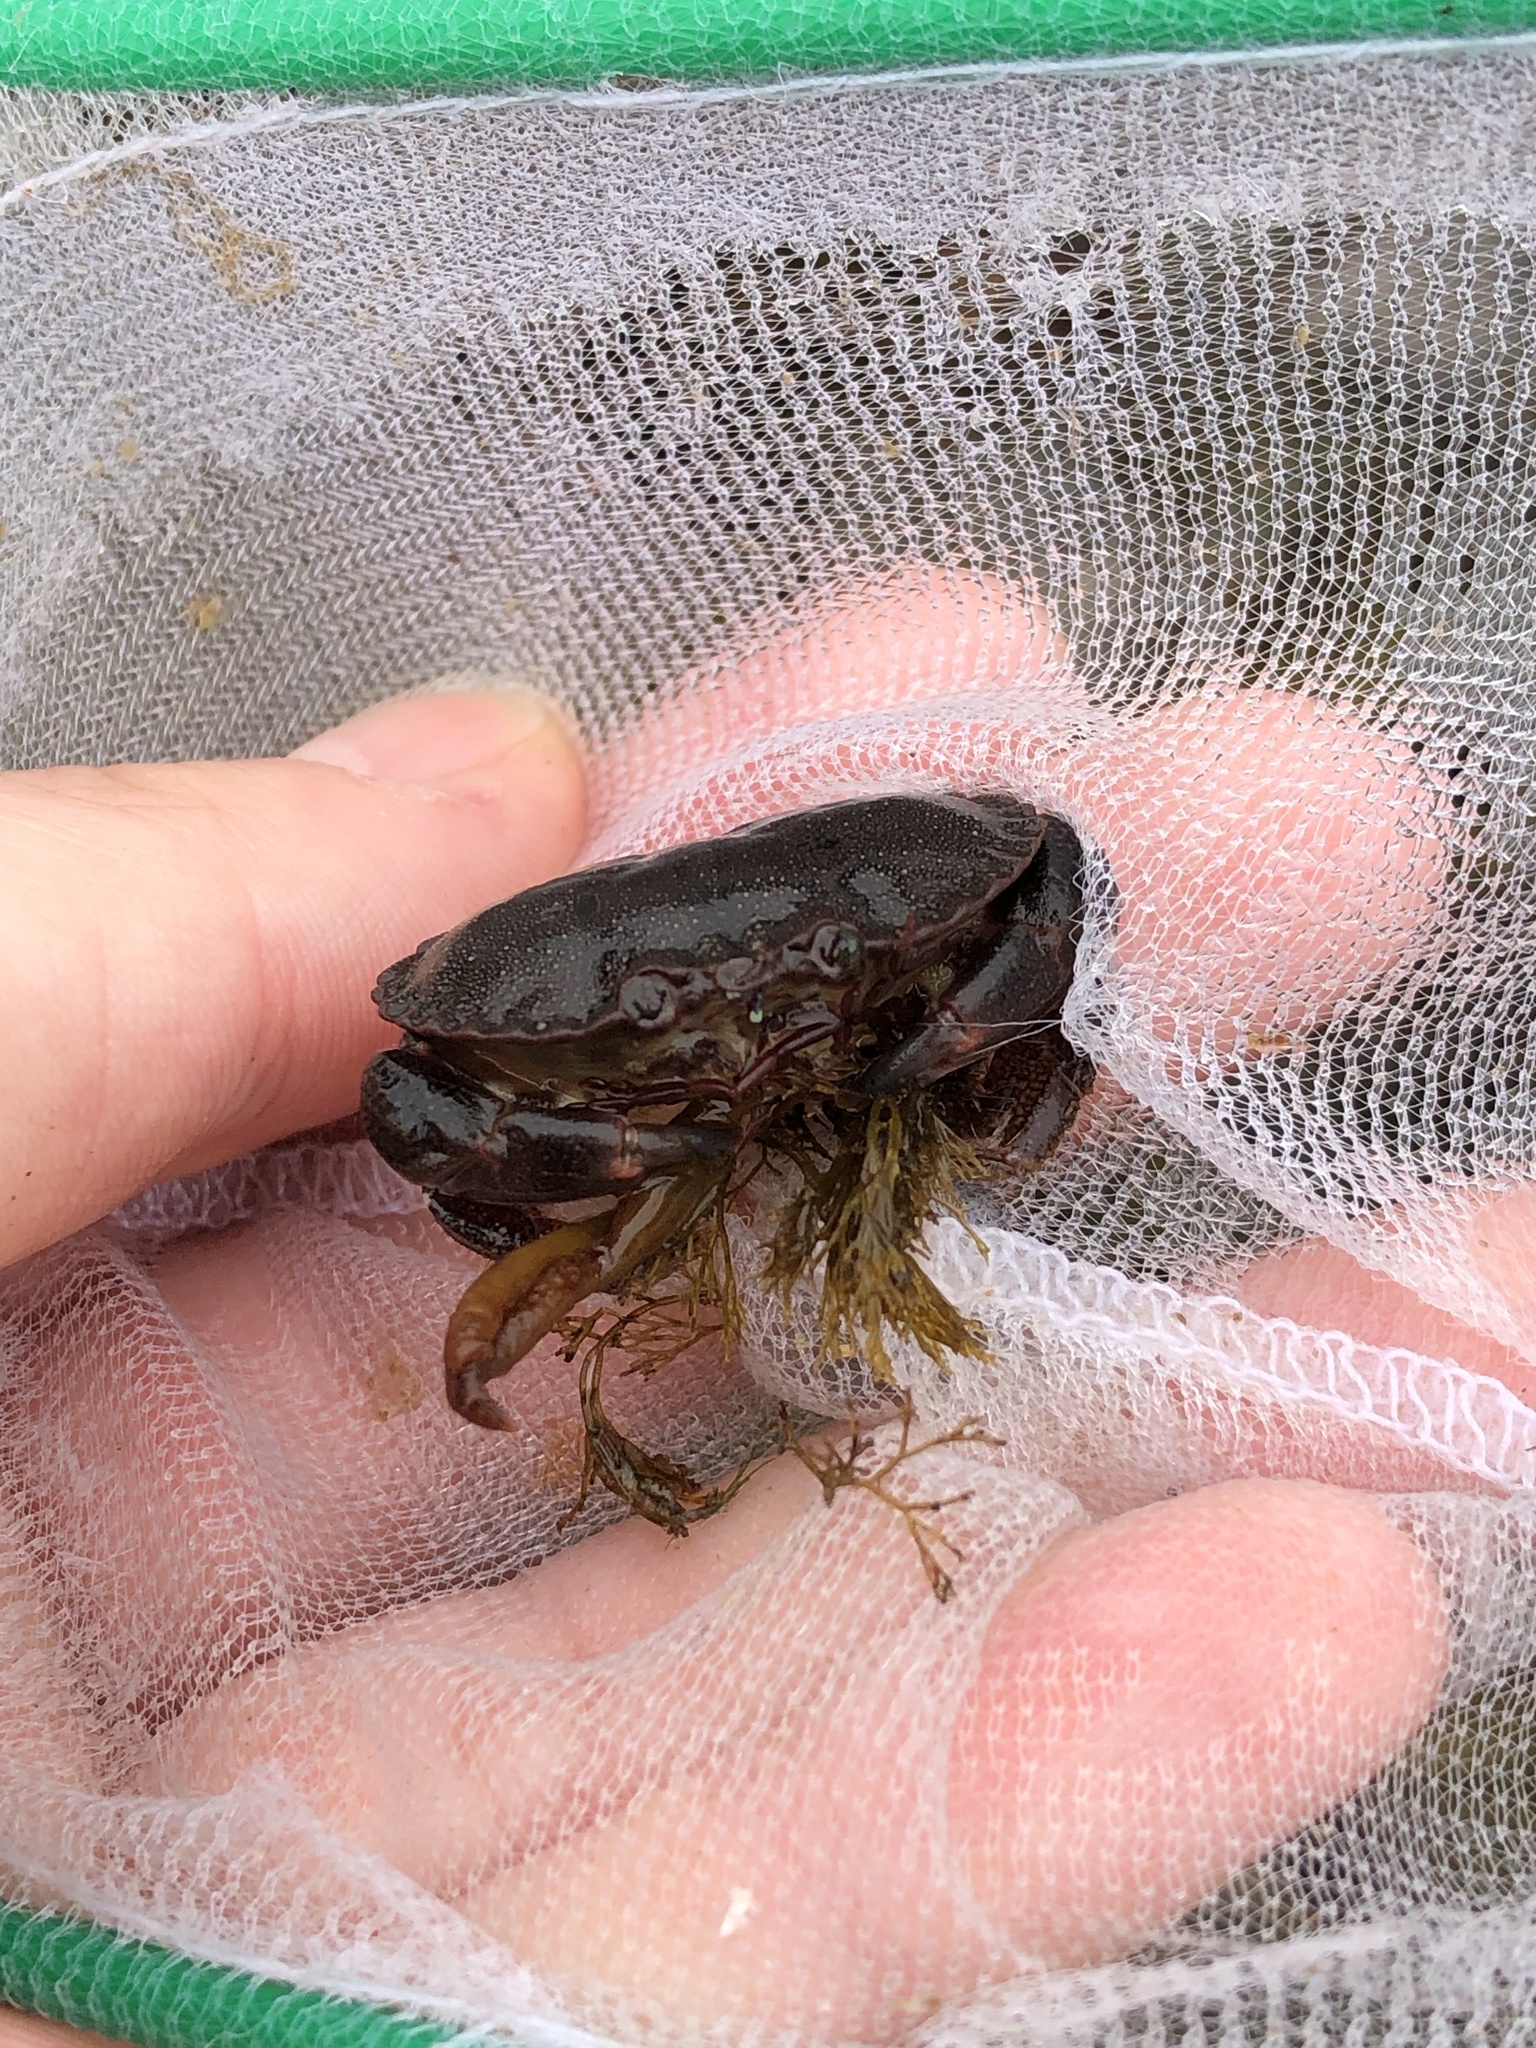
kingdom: Animalia
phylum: Arthropoda
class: Malacostraca
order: Decapoda
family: Cancridae
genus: Cancer
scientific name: Cancer pagurus
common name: Edible crab
